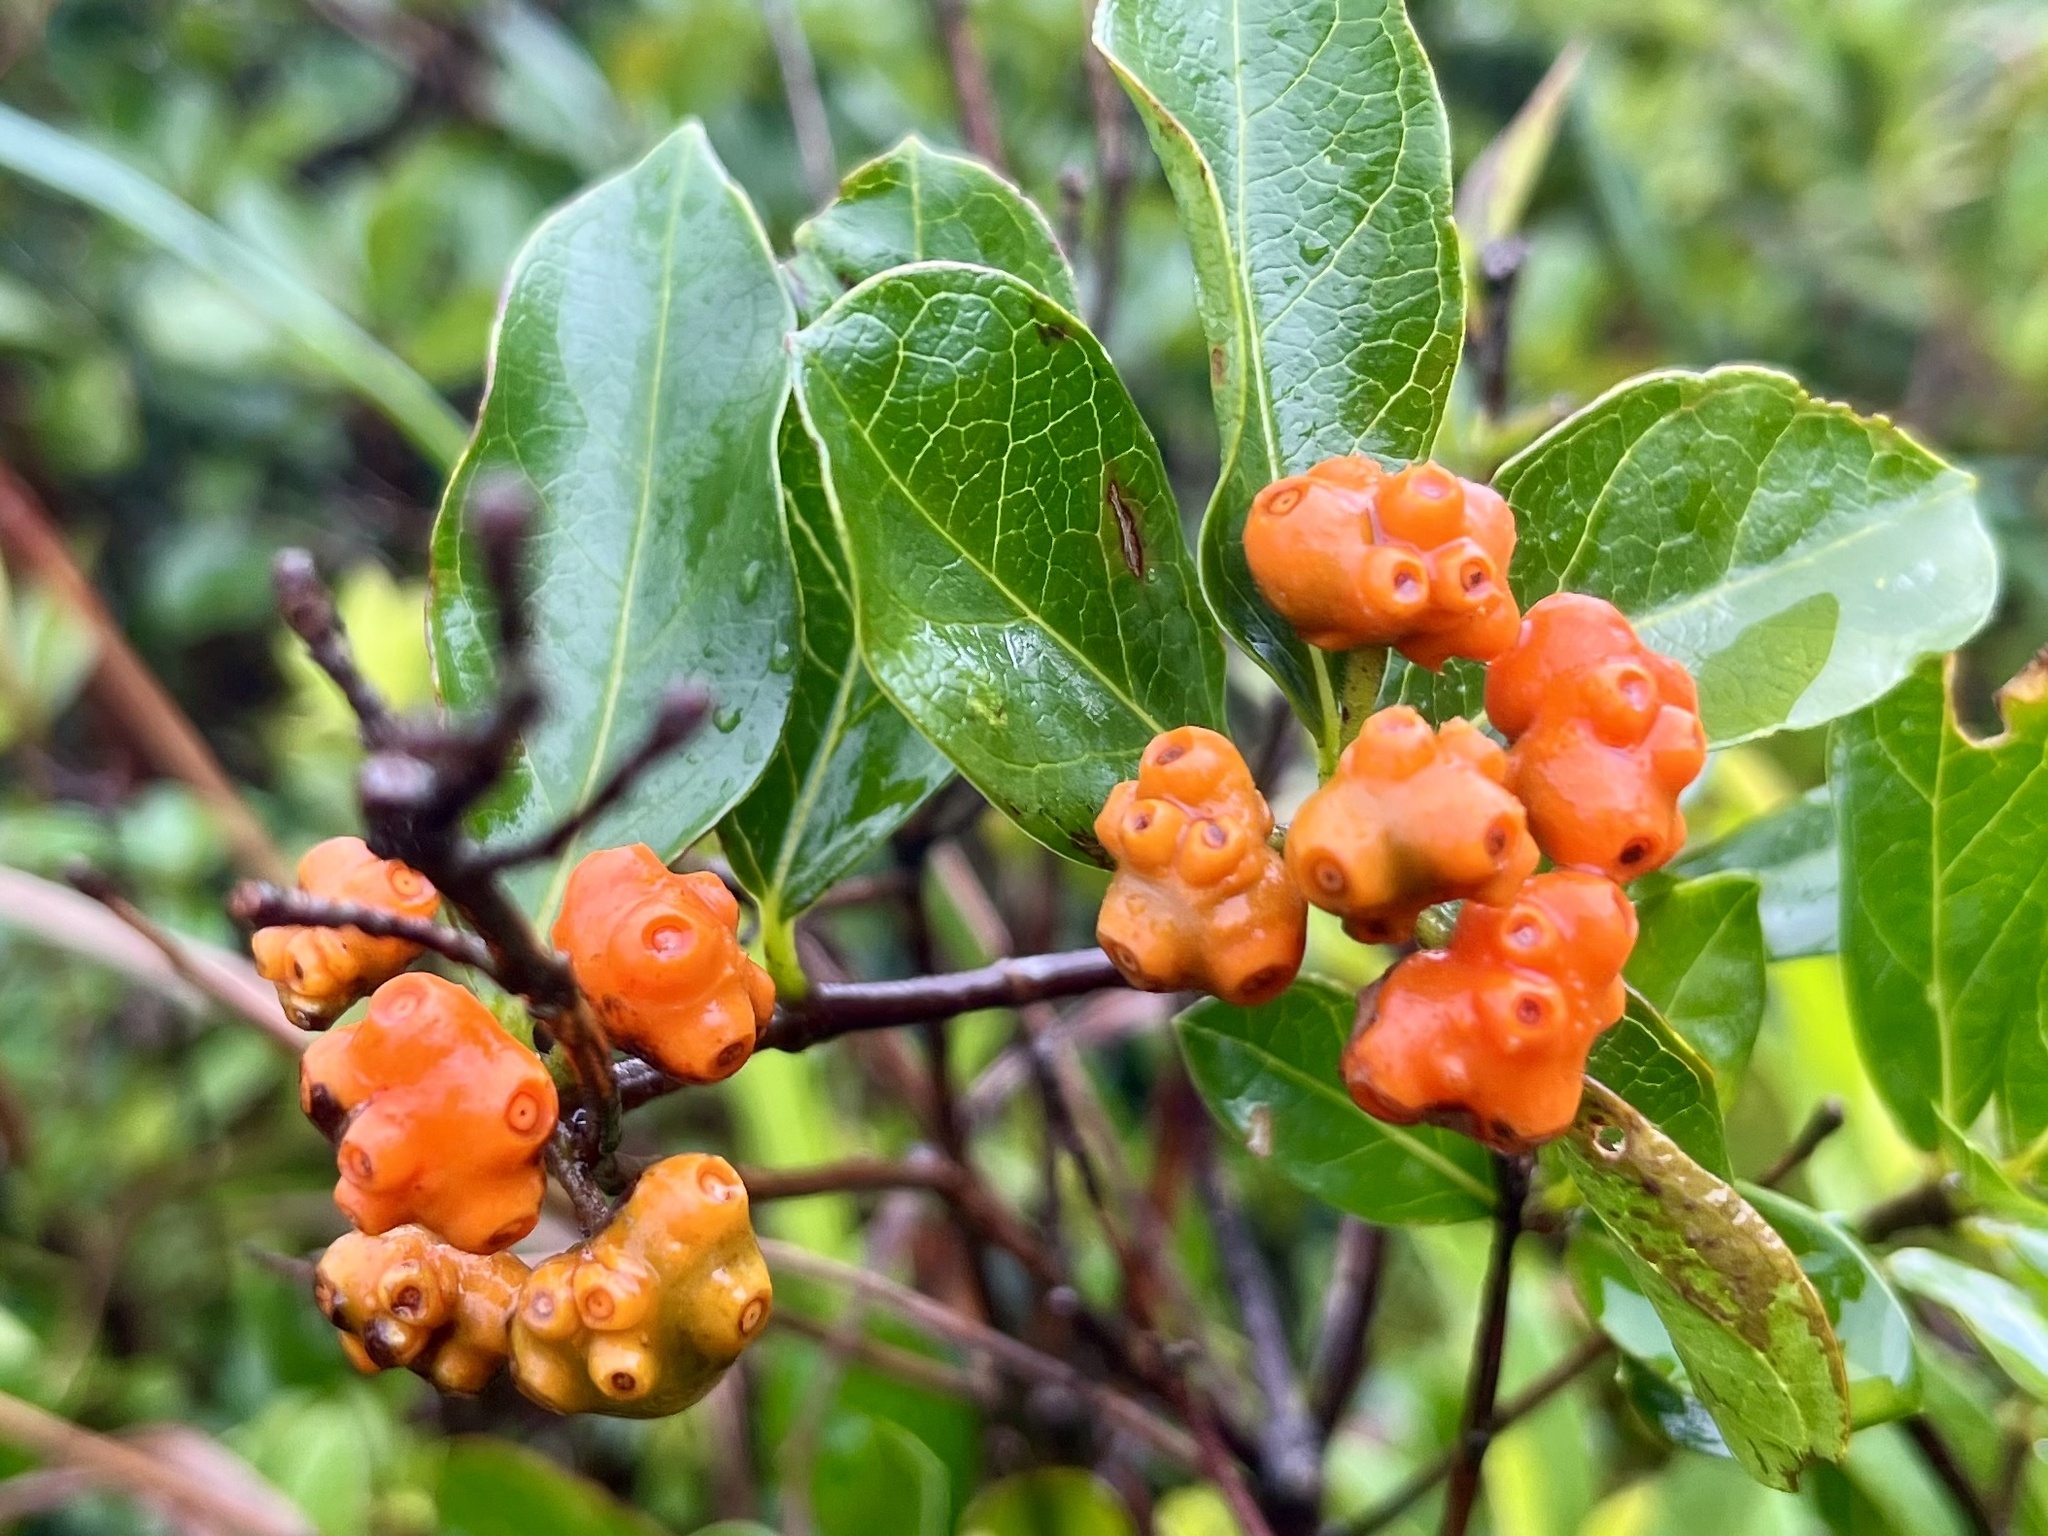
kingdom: Plantae
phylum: Tracheophyta
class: Magnoliopsida
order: Gentianales
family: Rubiaceae
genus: Gynochthodes
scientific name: Gynochthodes parvifolia
